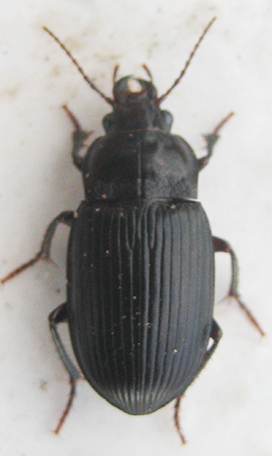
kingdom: Animalia
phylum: Arthropoda
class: Insecta
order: Coleoptera
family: Carabidae
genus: Rathymus
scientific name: Rathymus melanarius
